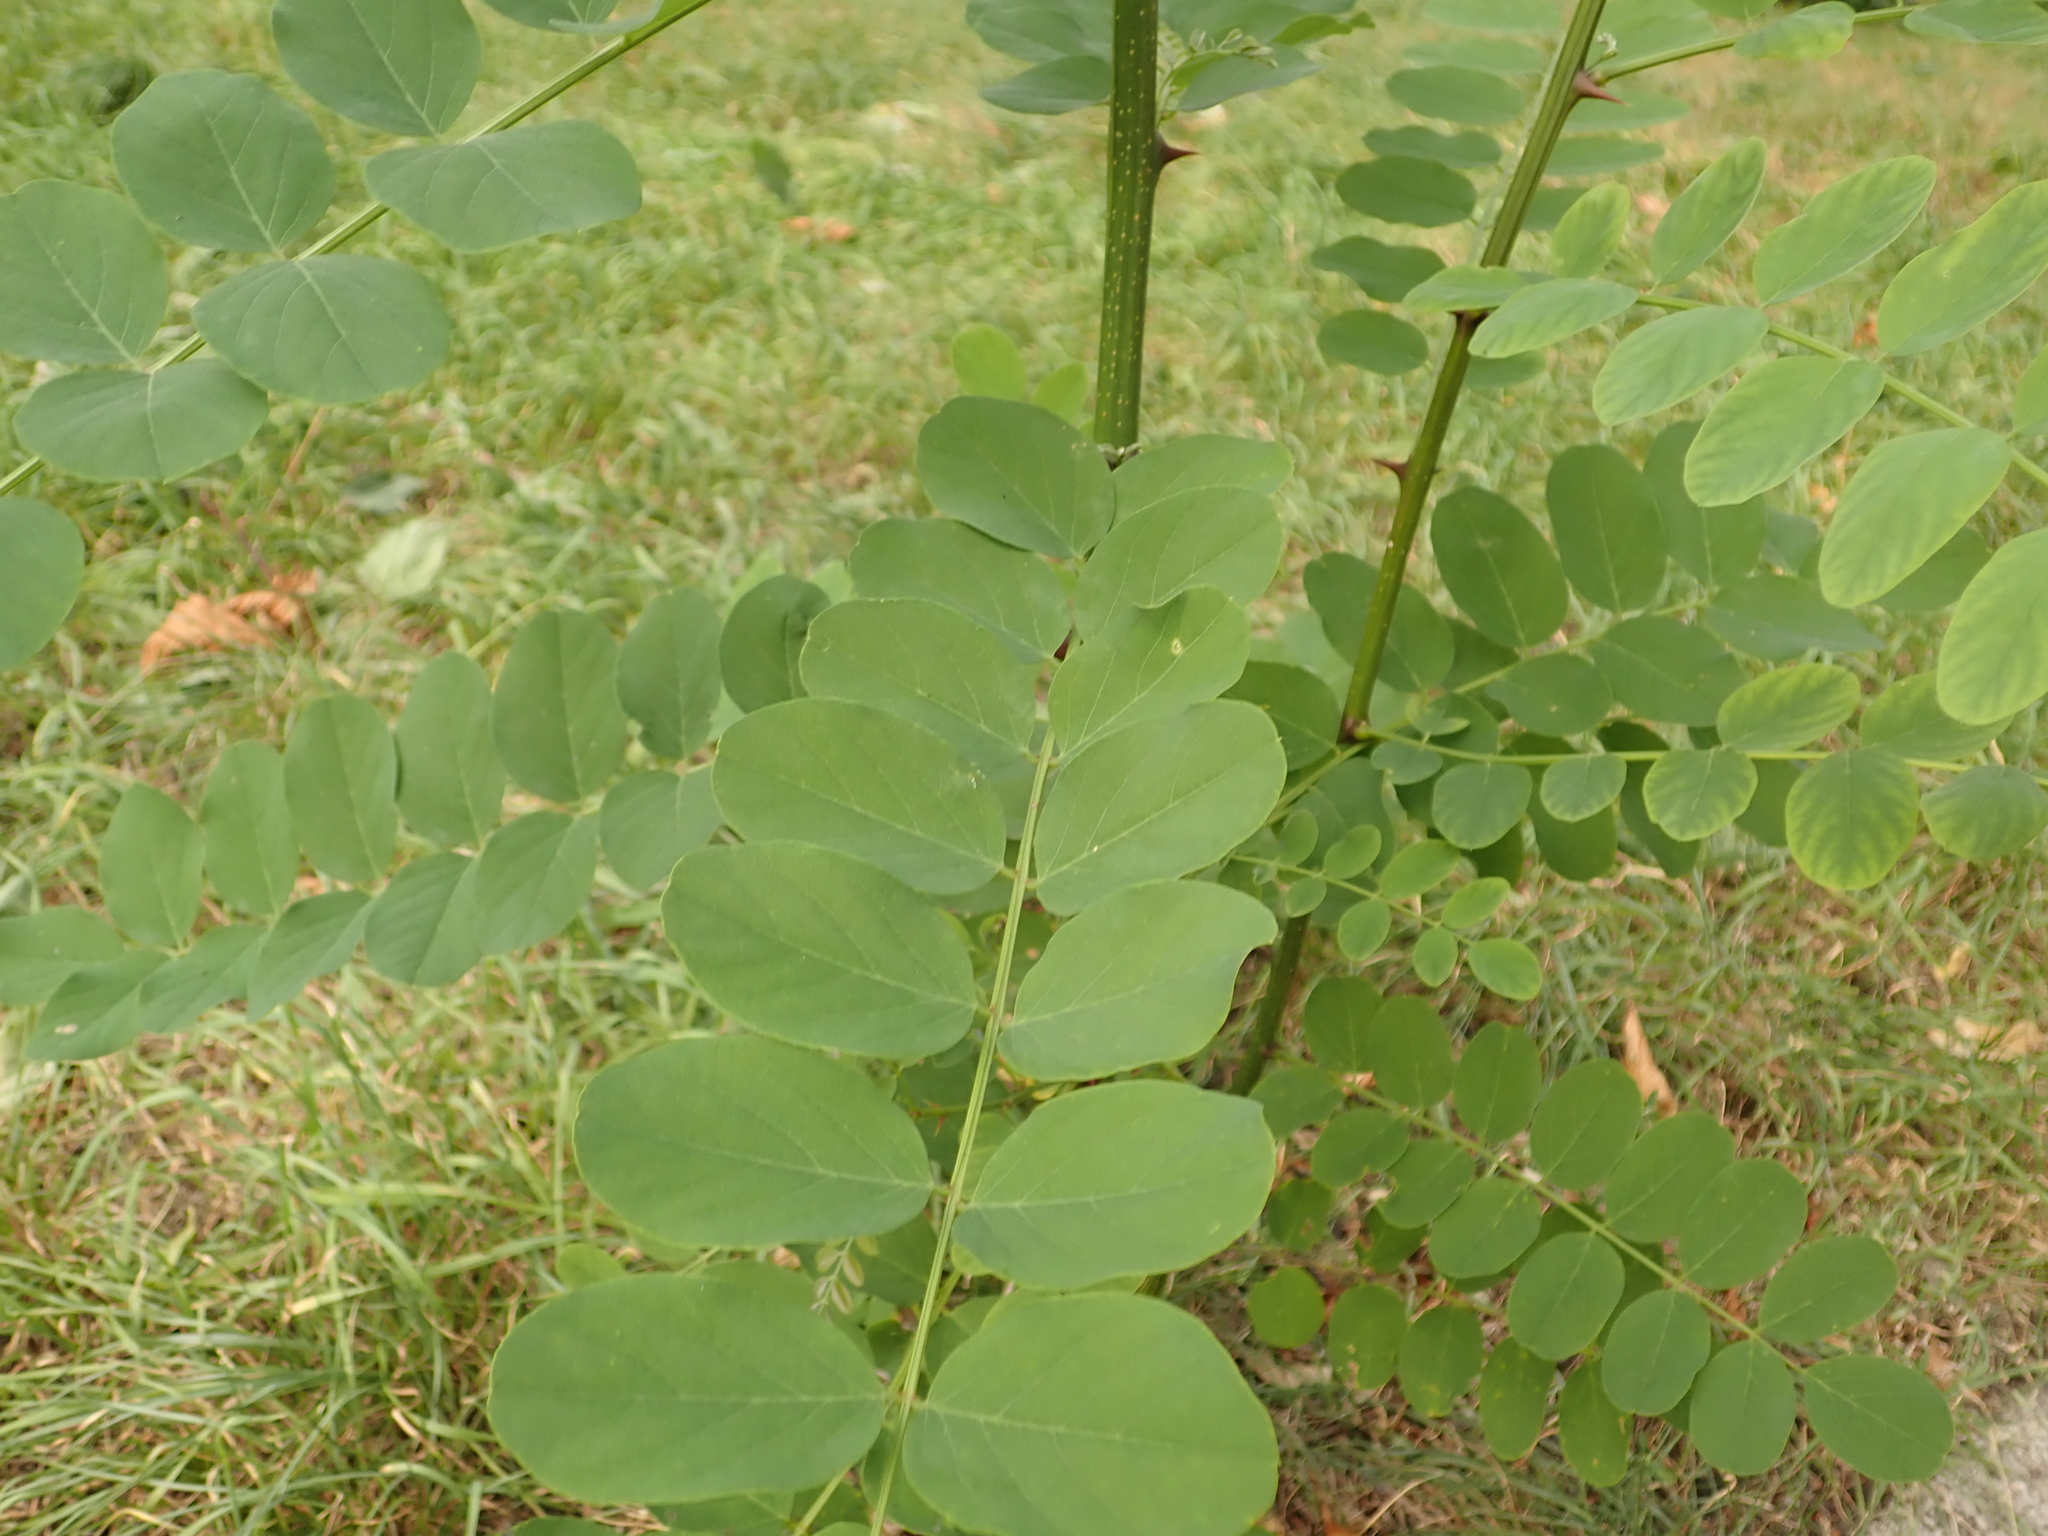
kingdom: Plantae
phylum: Tracheophyta
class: Magnoliopsida
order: Fabales
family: Fabaceae
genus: Robinia
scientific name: Robinia pseudoacacia
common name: Black locust
